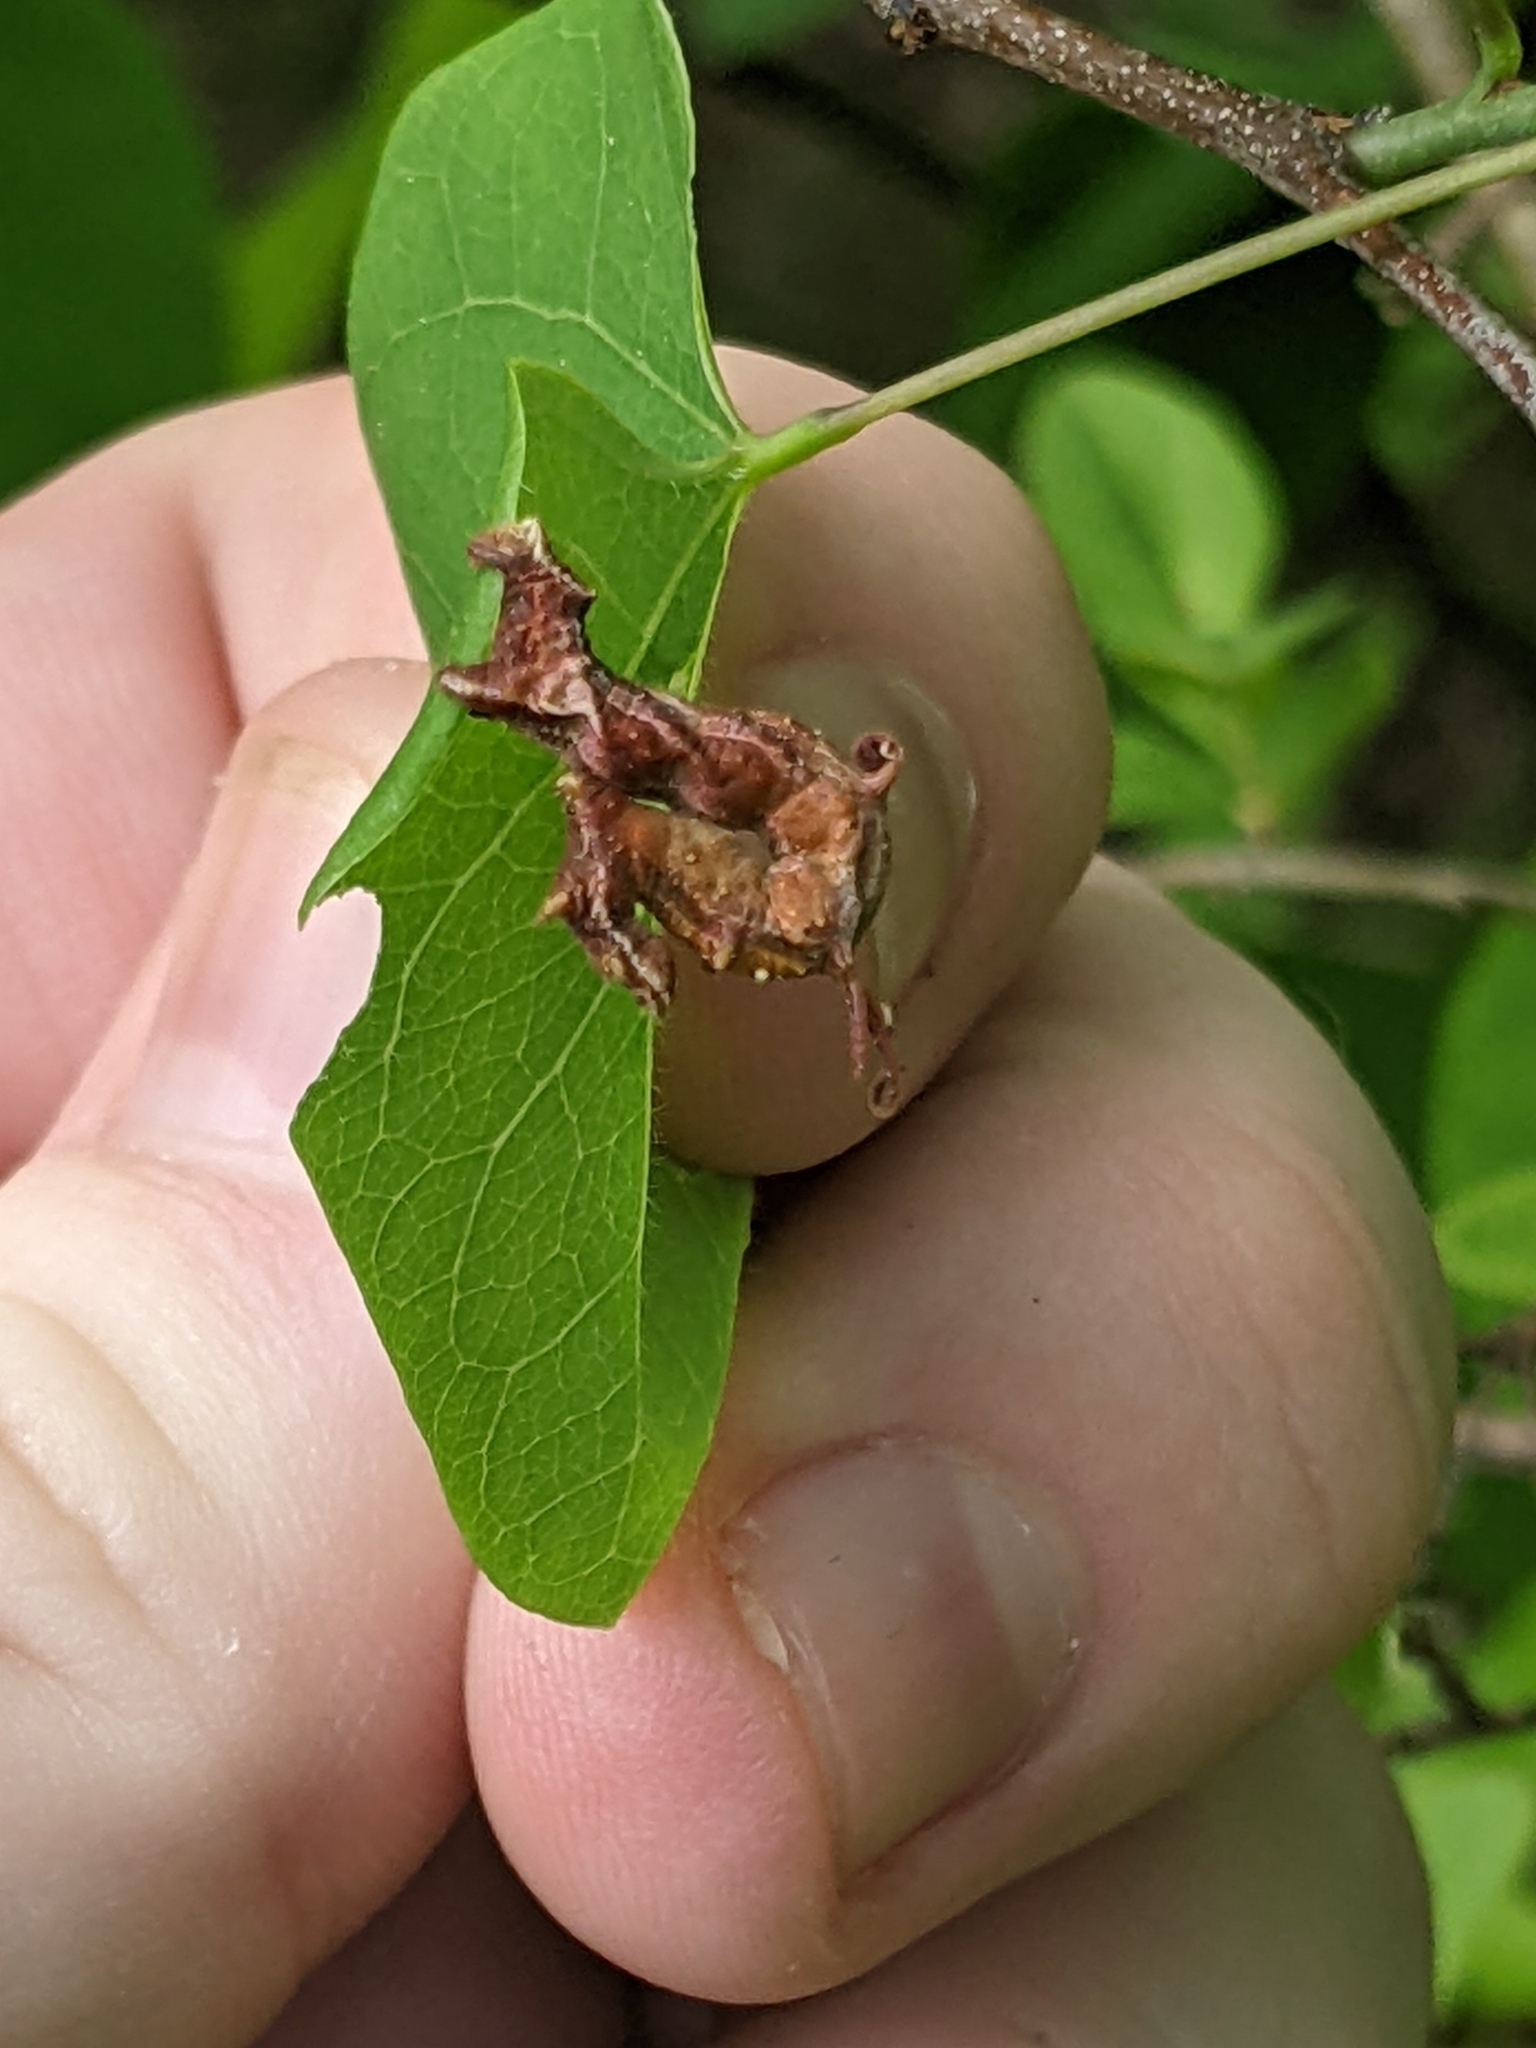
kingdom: Animalia
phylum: Arthropoda
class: Insecta
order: Lepidoptera
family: Geometridae
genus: Nematocampa
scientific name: Nematocampa resistaria
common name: Horned spanworm moth
